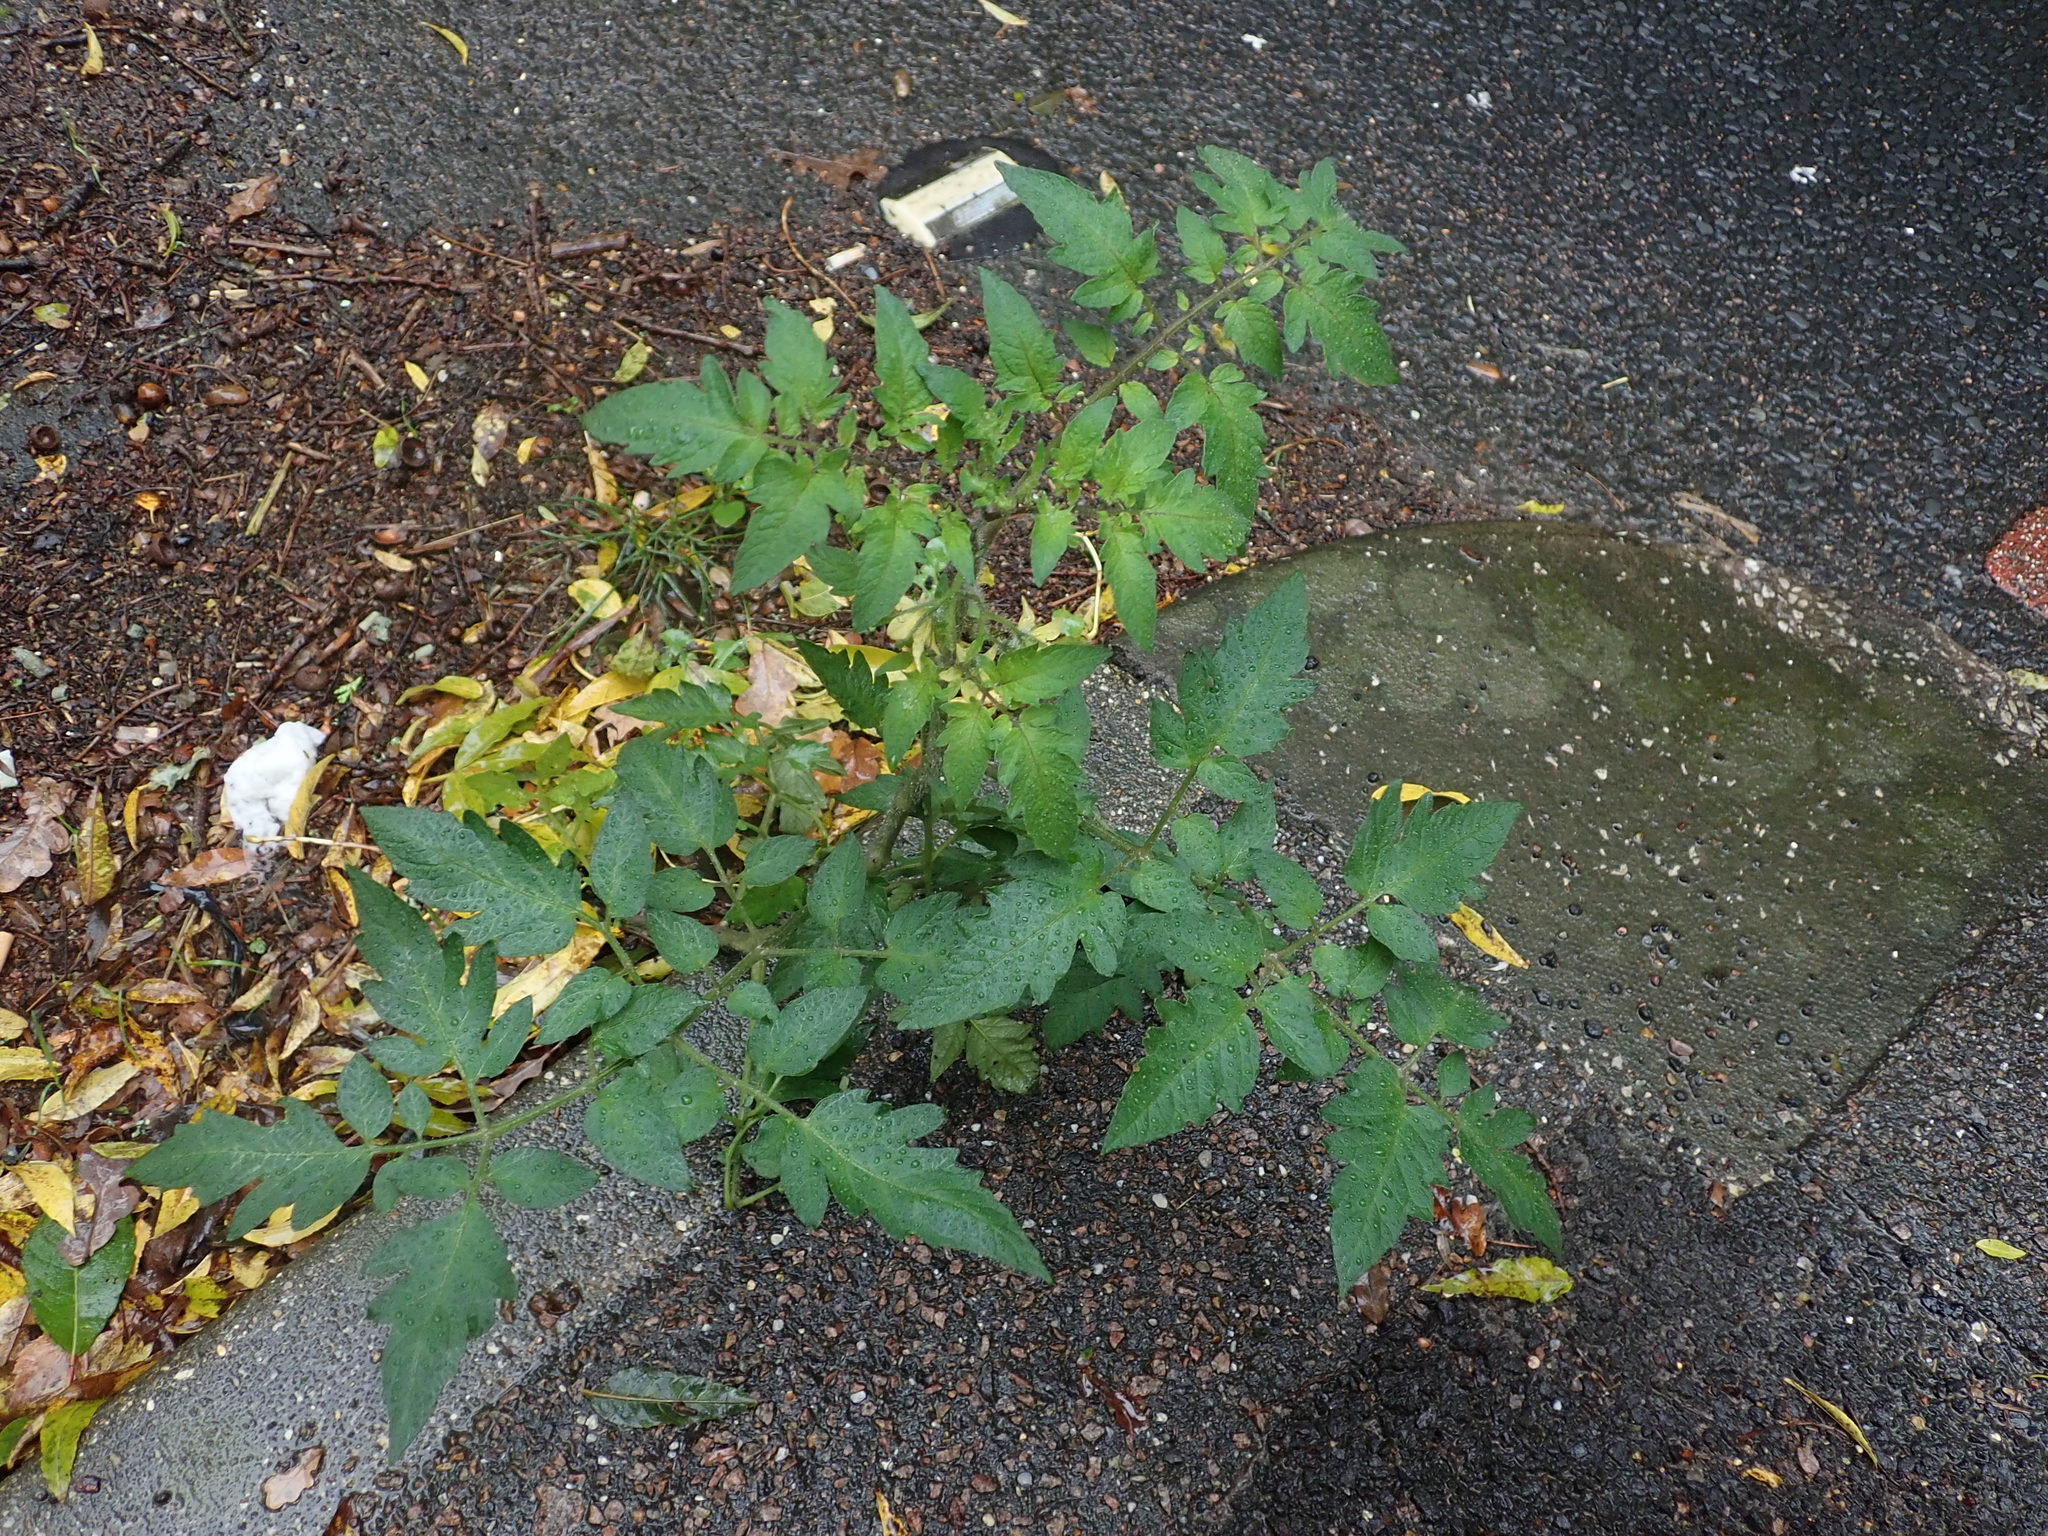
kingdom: Plantae
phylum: Tracheophyta
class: Magnoliopsida
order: Solanales
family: Solanaceae
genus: Solanum
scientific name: Solanum lycopersicum
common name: Garden tomato
